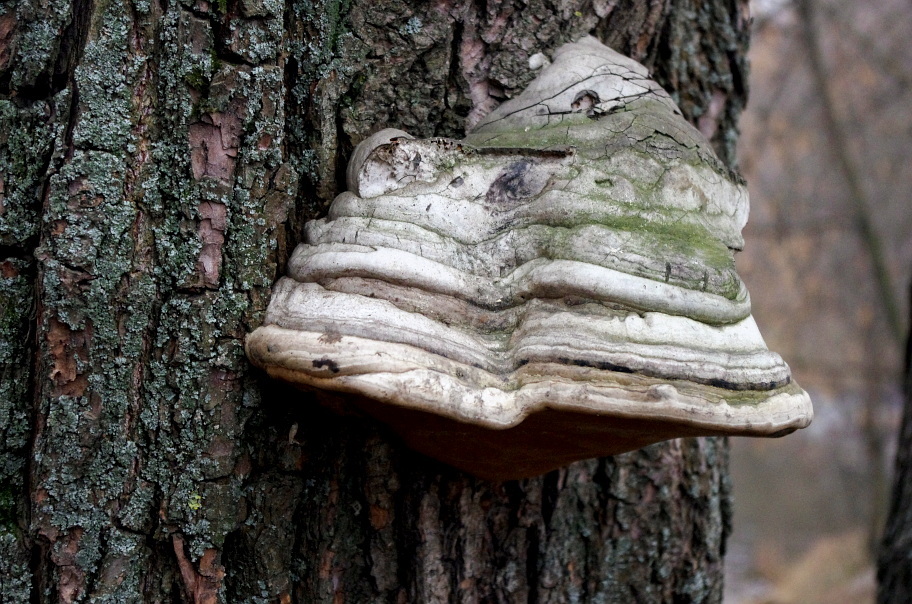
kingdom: Fungi
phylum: Basidiomycota
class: Agaricomycetes
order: Polyporales
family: Polyporaceae
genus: Fomes
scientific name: Fomes fomentarius
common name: Hoof fungus
